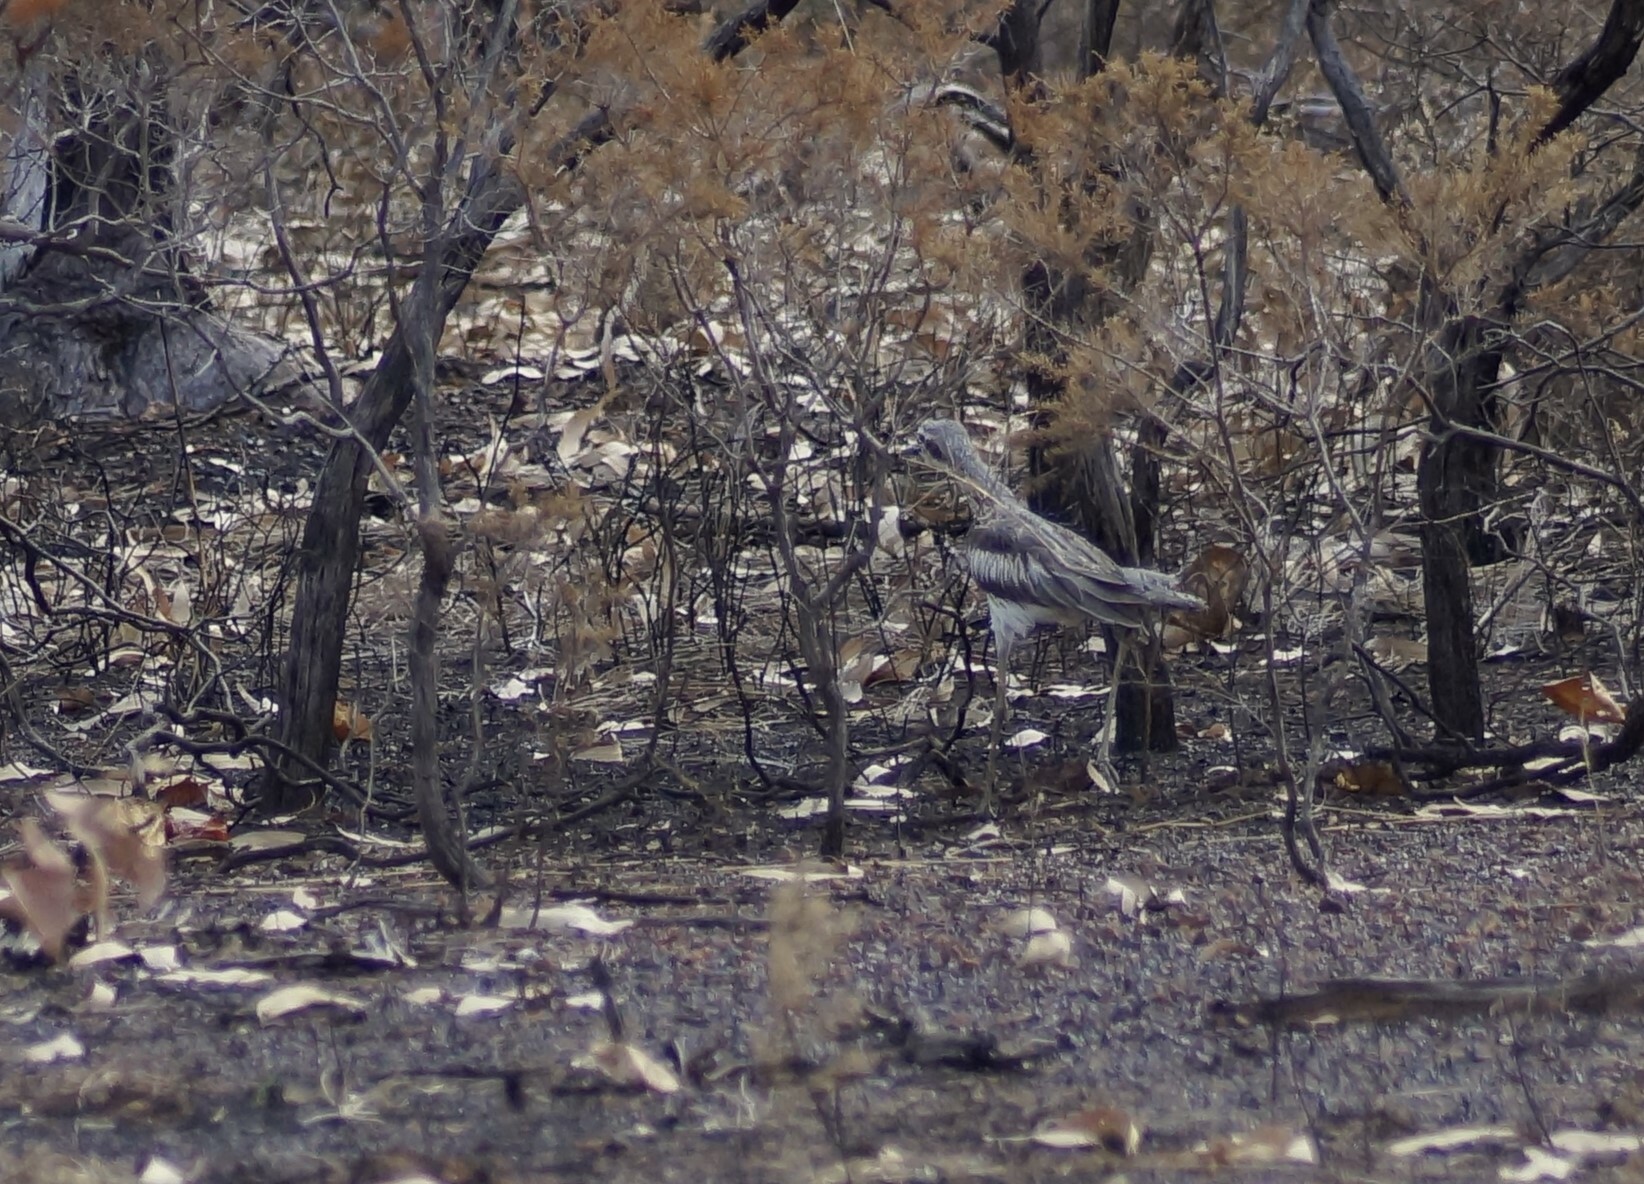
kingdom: Animalia
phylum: Chordata
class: Aves
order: Charadriiformes
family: Burhinidae
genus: Burhinus
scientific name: Burhinus grallarius
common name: Bush stone-curlew
